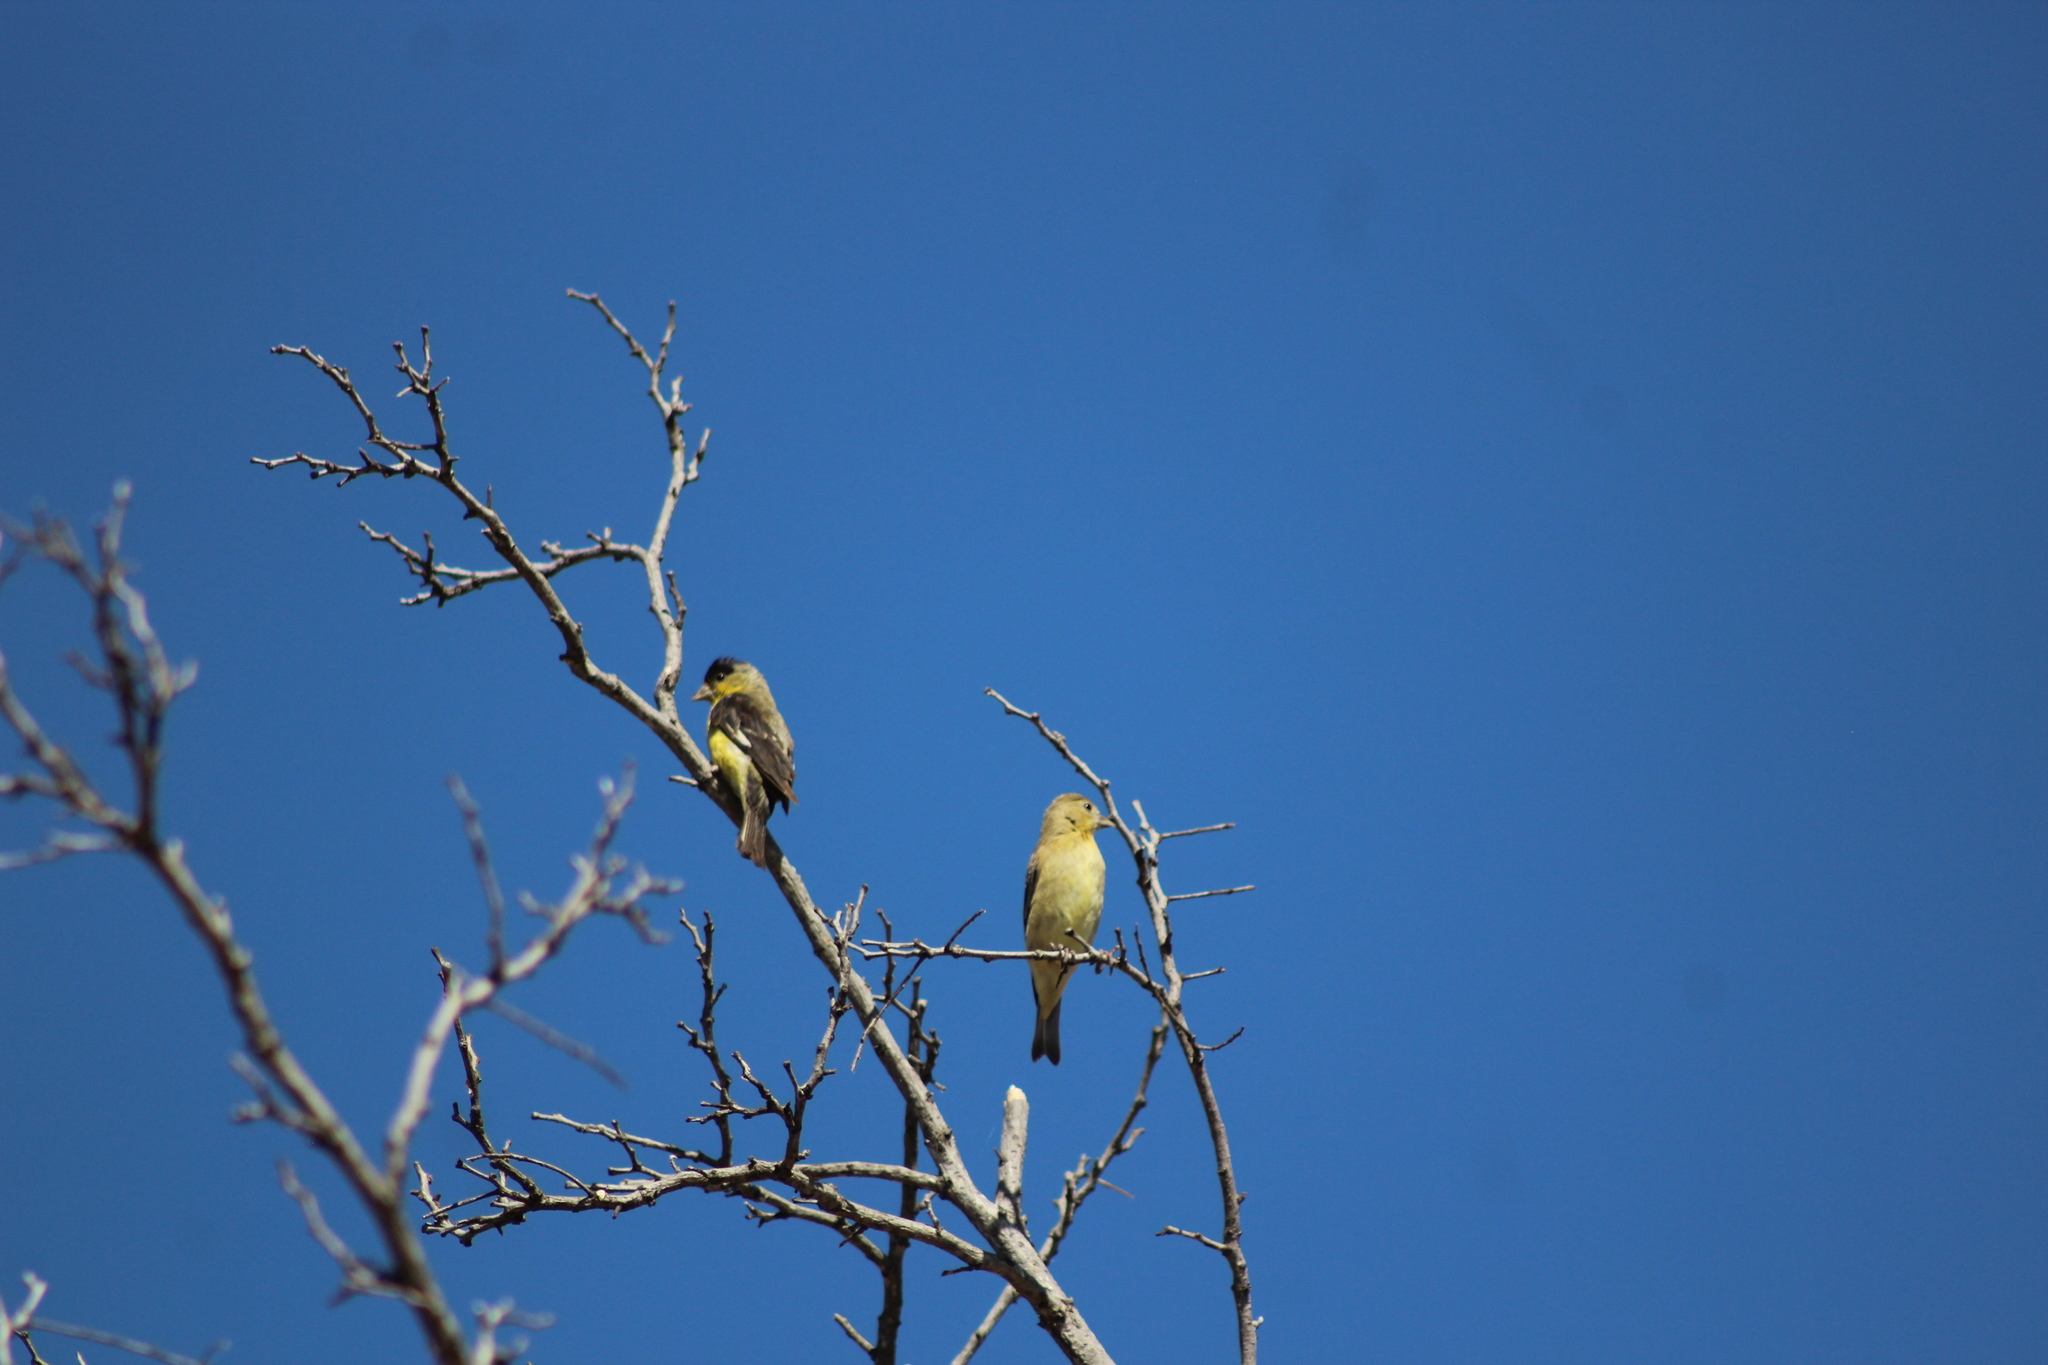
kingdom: Animalia
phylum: Chordata
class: Aves
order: Passeriformes
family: Fringillidae
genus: Spinus
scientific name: Spinus psaltria
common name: Lesser goldfinch
